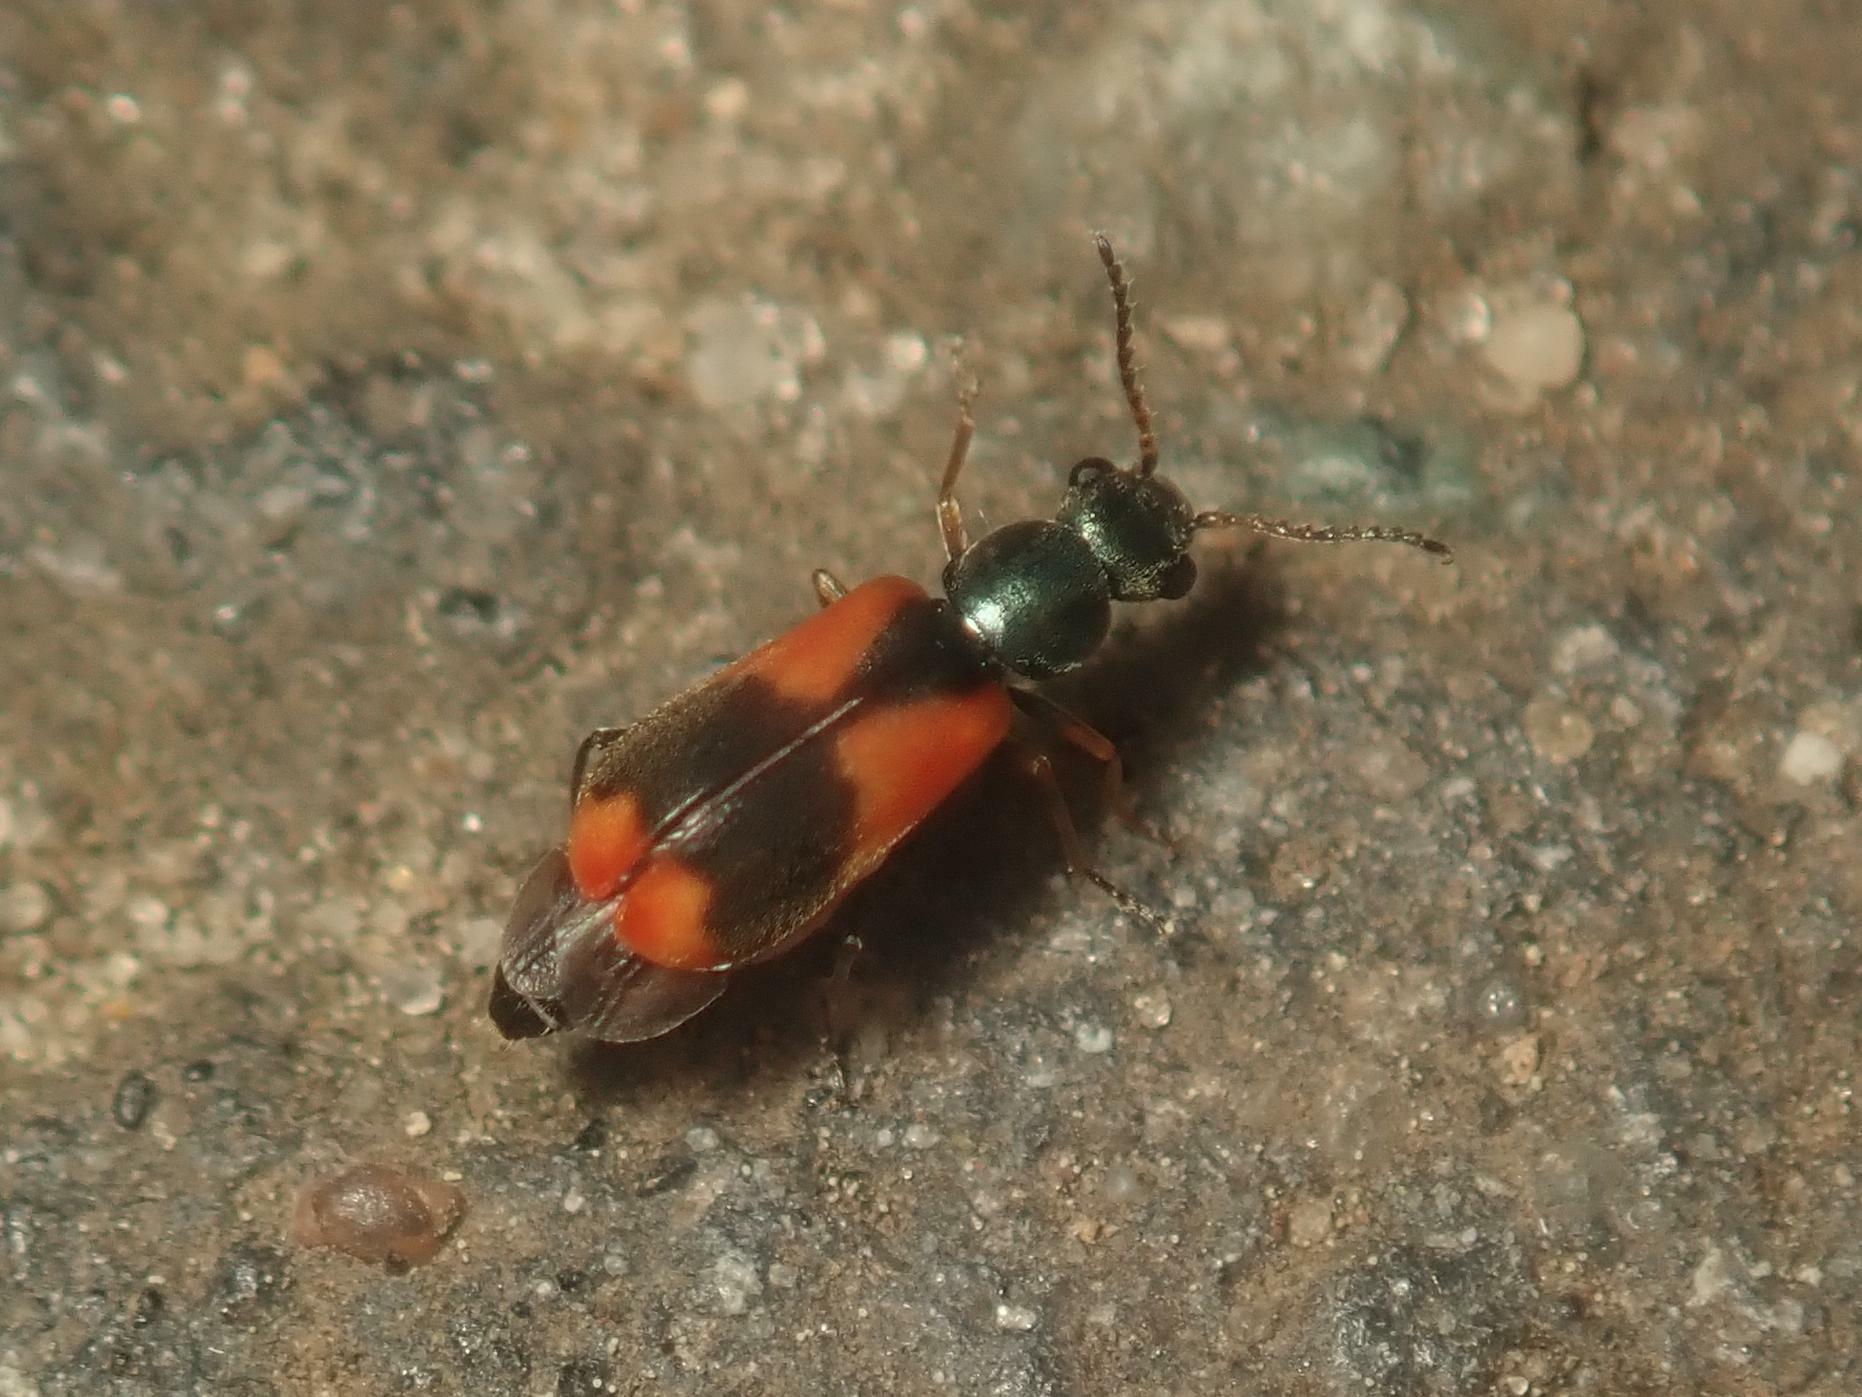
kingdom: Animalia
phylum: Arthropoda
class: Insecta
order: Coleoptera
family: Melyridae
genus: Anthocomus
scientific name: Anthocomus equestris
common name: Black-banded soft-winged flower beetle
